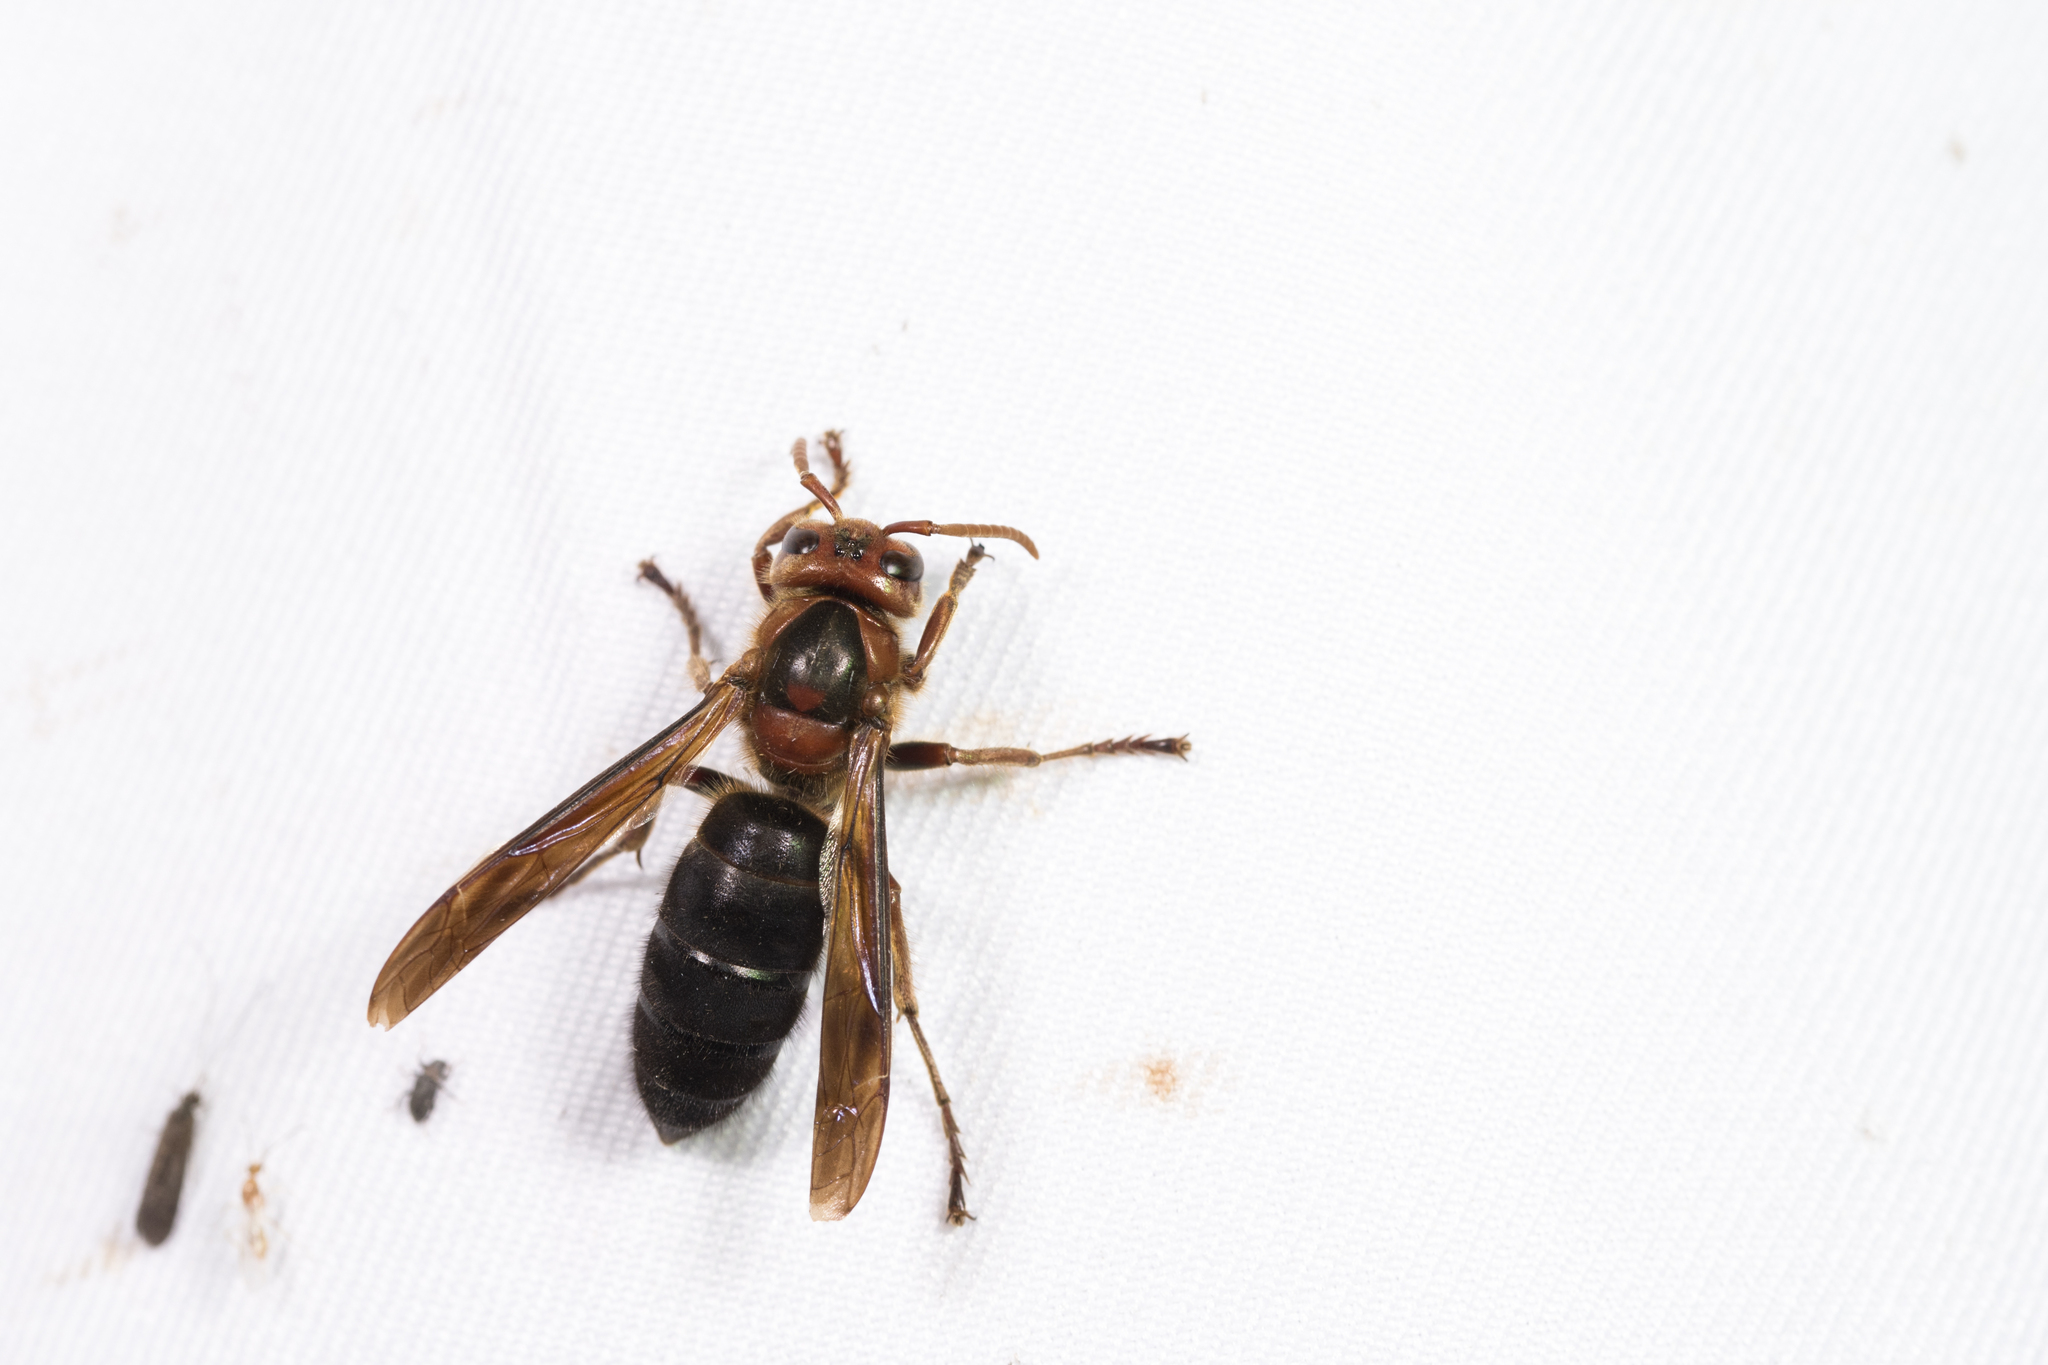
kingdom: Animalia
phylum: Arthropoda
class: Insecta
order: Hymenoptera
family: Vespidae
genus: Vespa
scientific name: Vespa basalis
